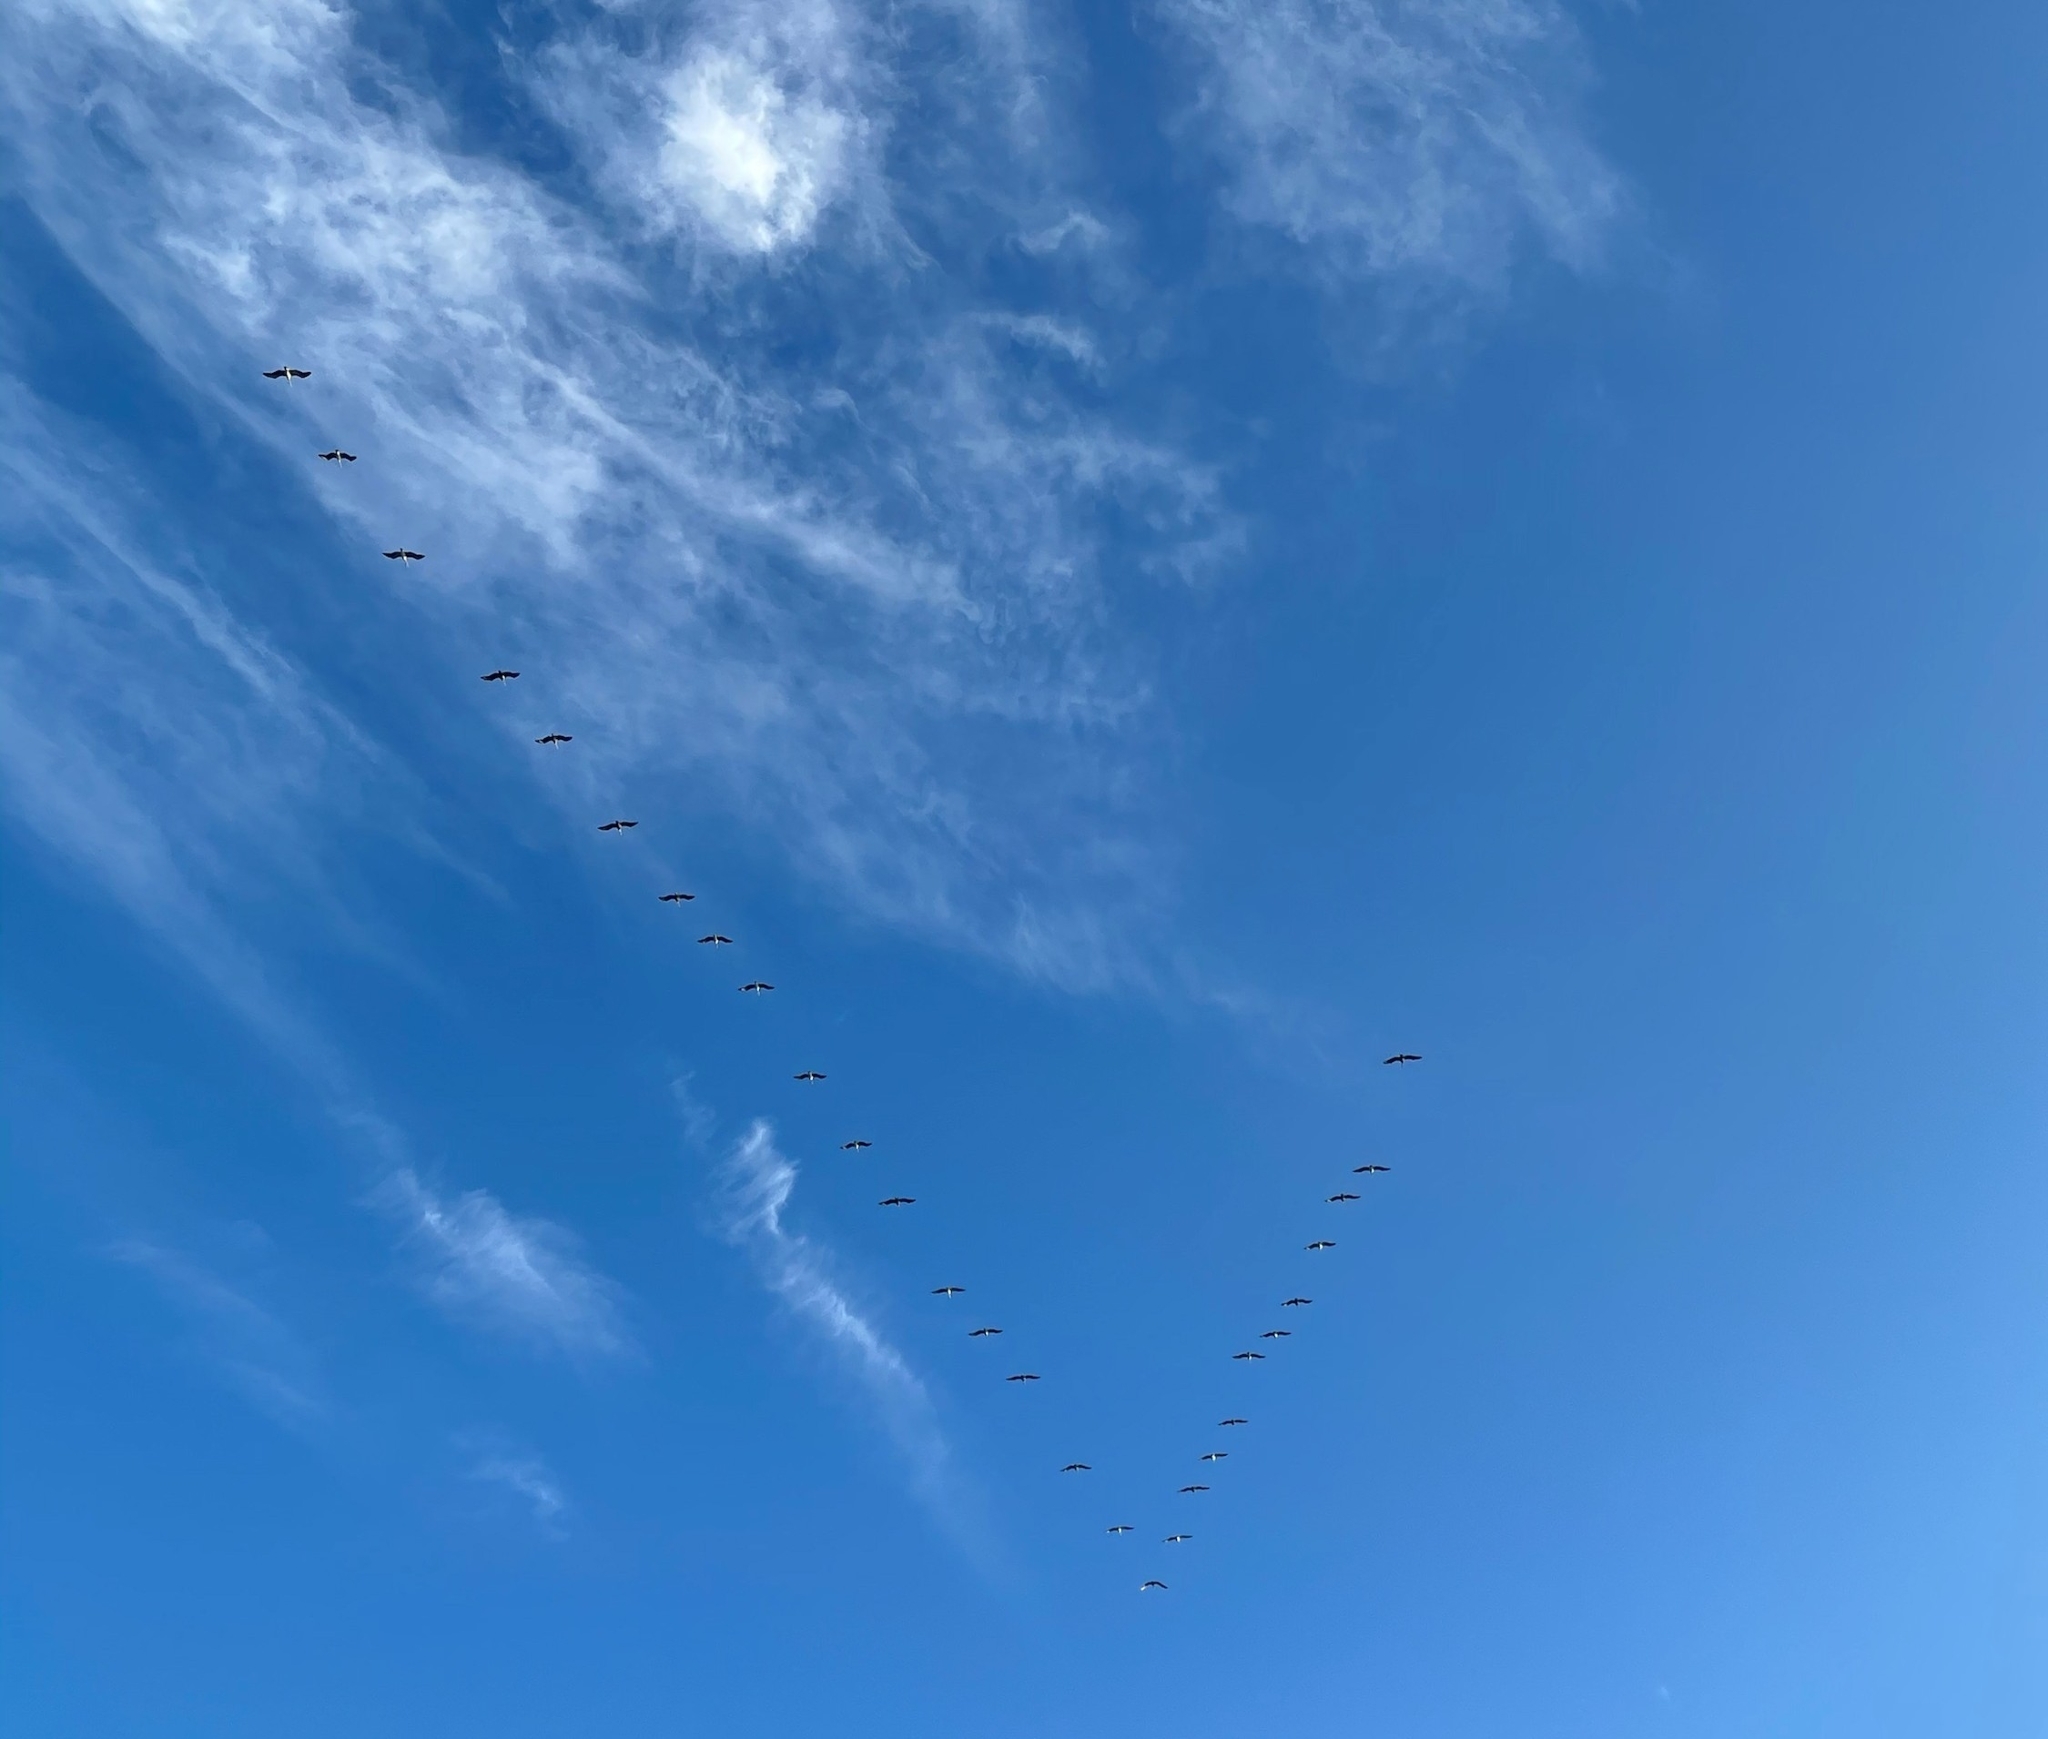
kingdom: Animalia
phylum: Chordata
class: Aves
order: Pelecaniformes
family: Pelecanidae
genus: Pelecanus
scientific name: Pelecanus occidentalis
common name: Brown pelican
